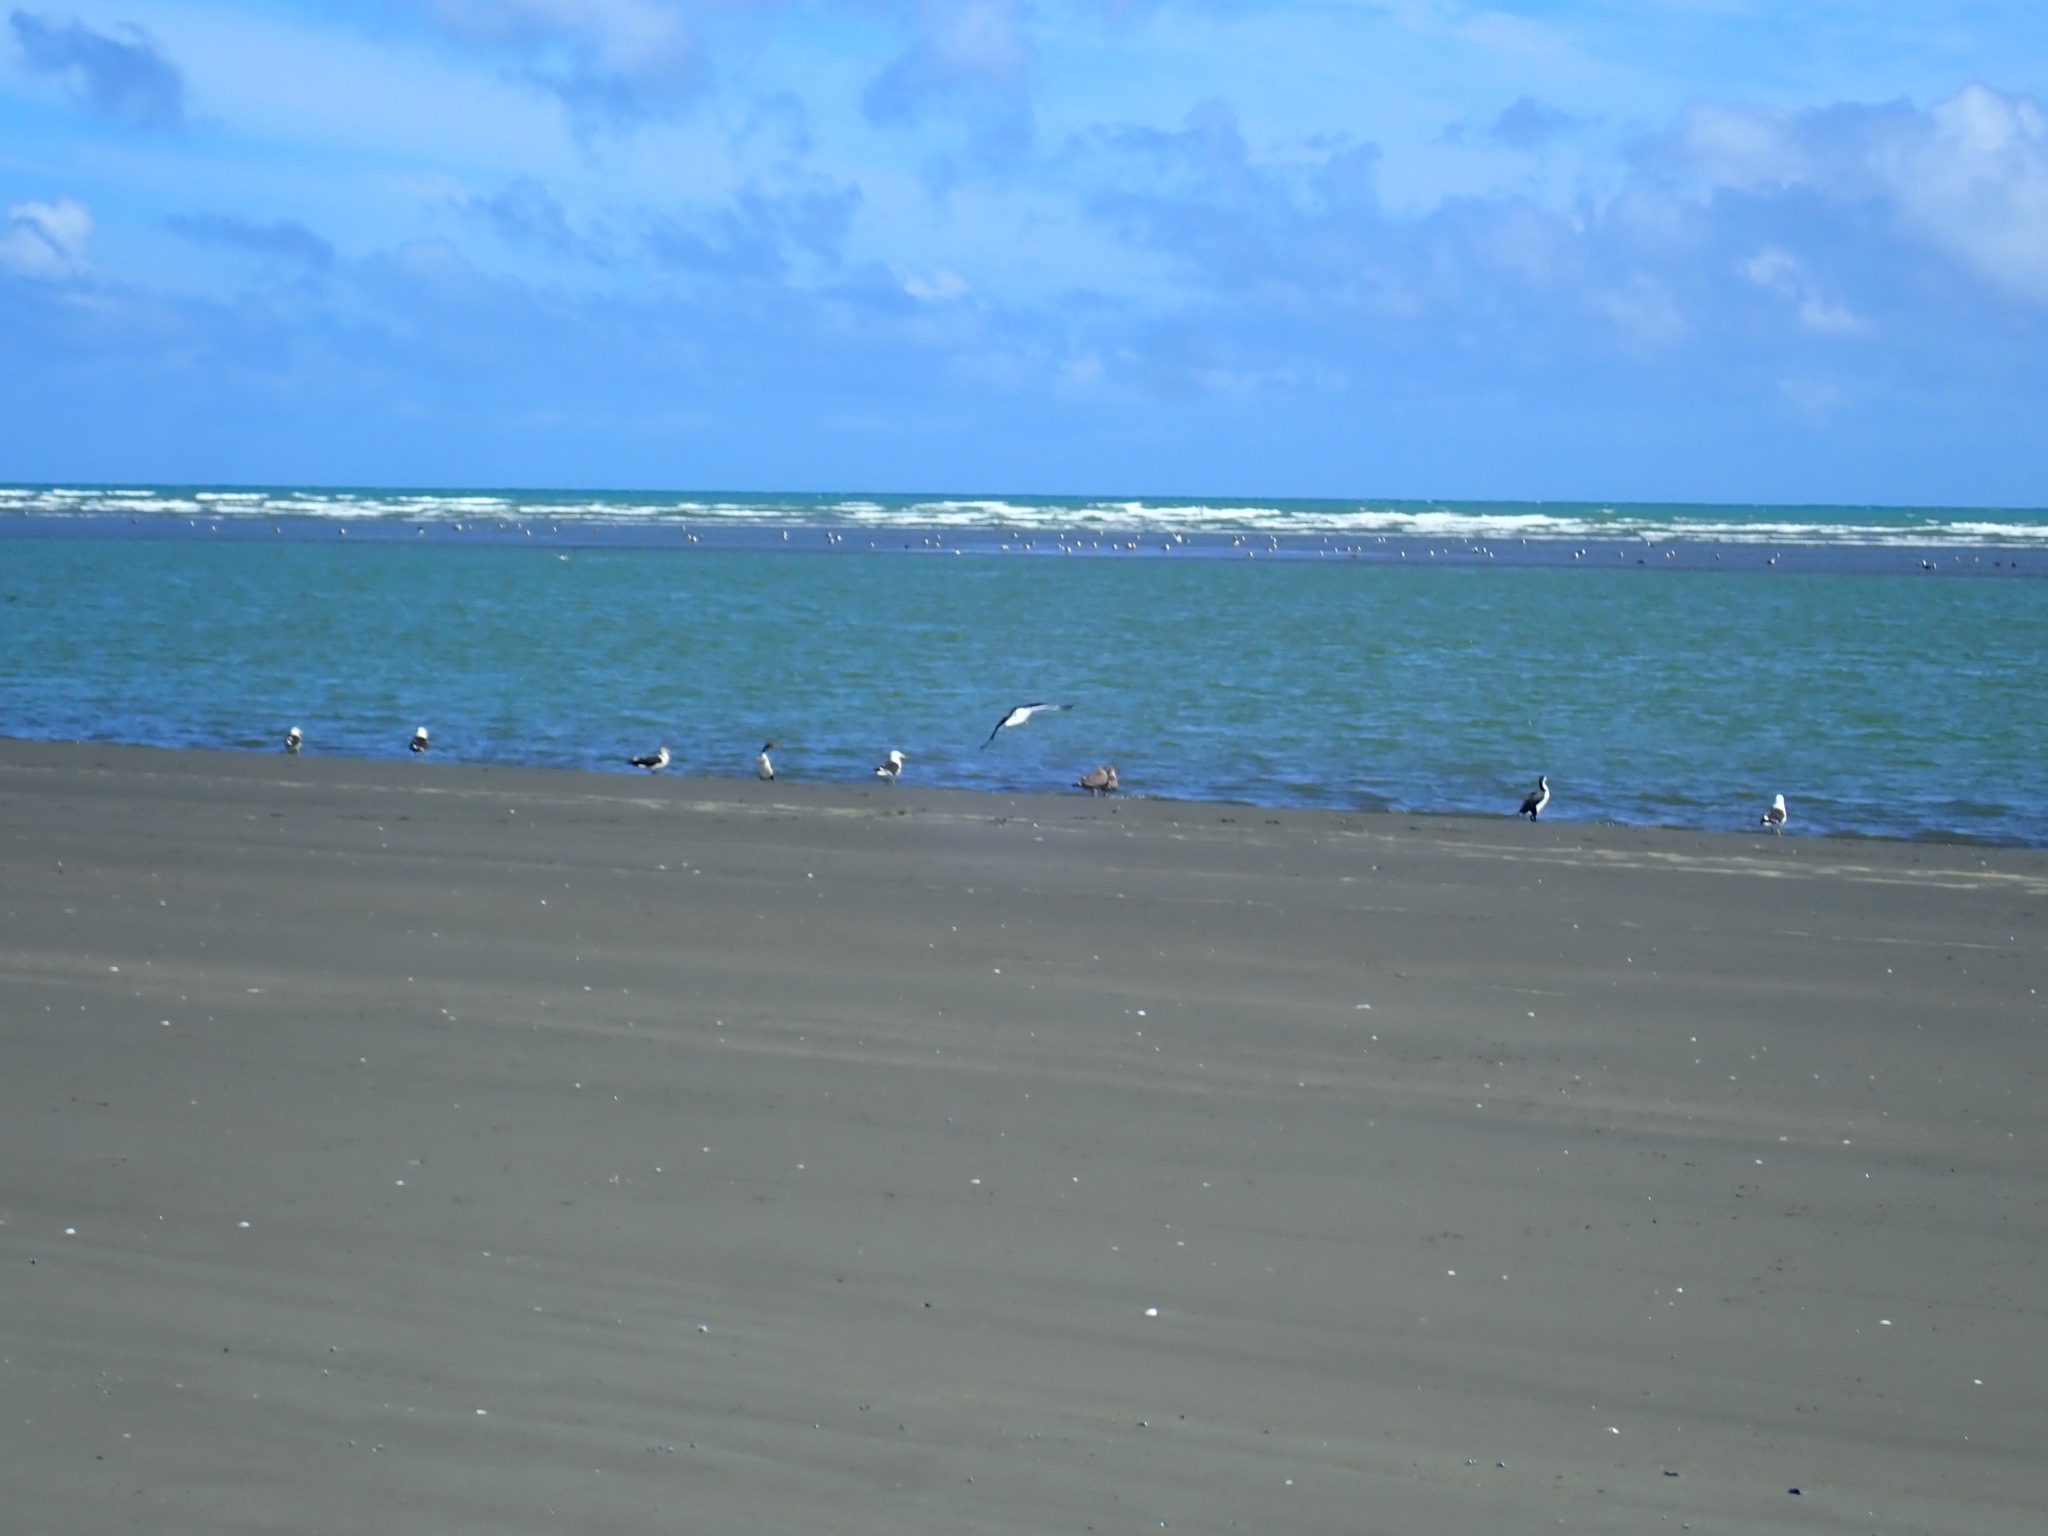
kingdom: Animalia
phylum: Chordata
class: Aves
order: Suliformes
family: Phalacrocoracidae
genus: Phalacrocorax
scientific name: Phalacrocorax varius
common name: Pied cormorant
